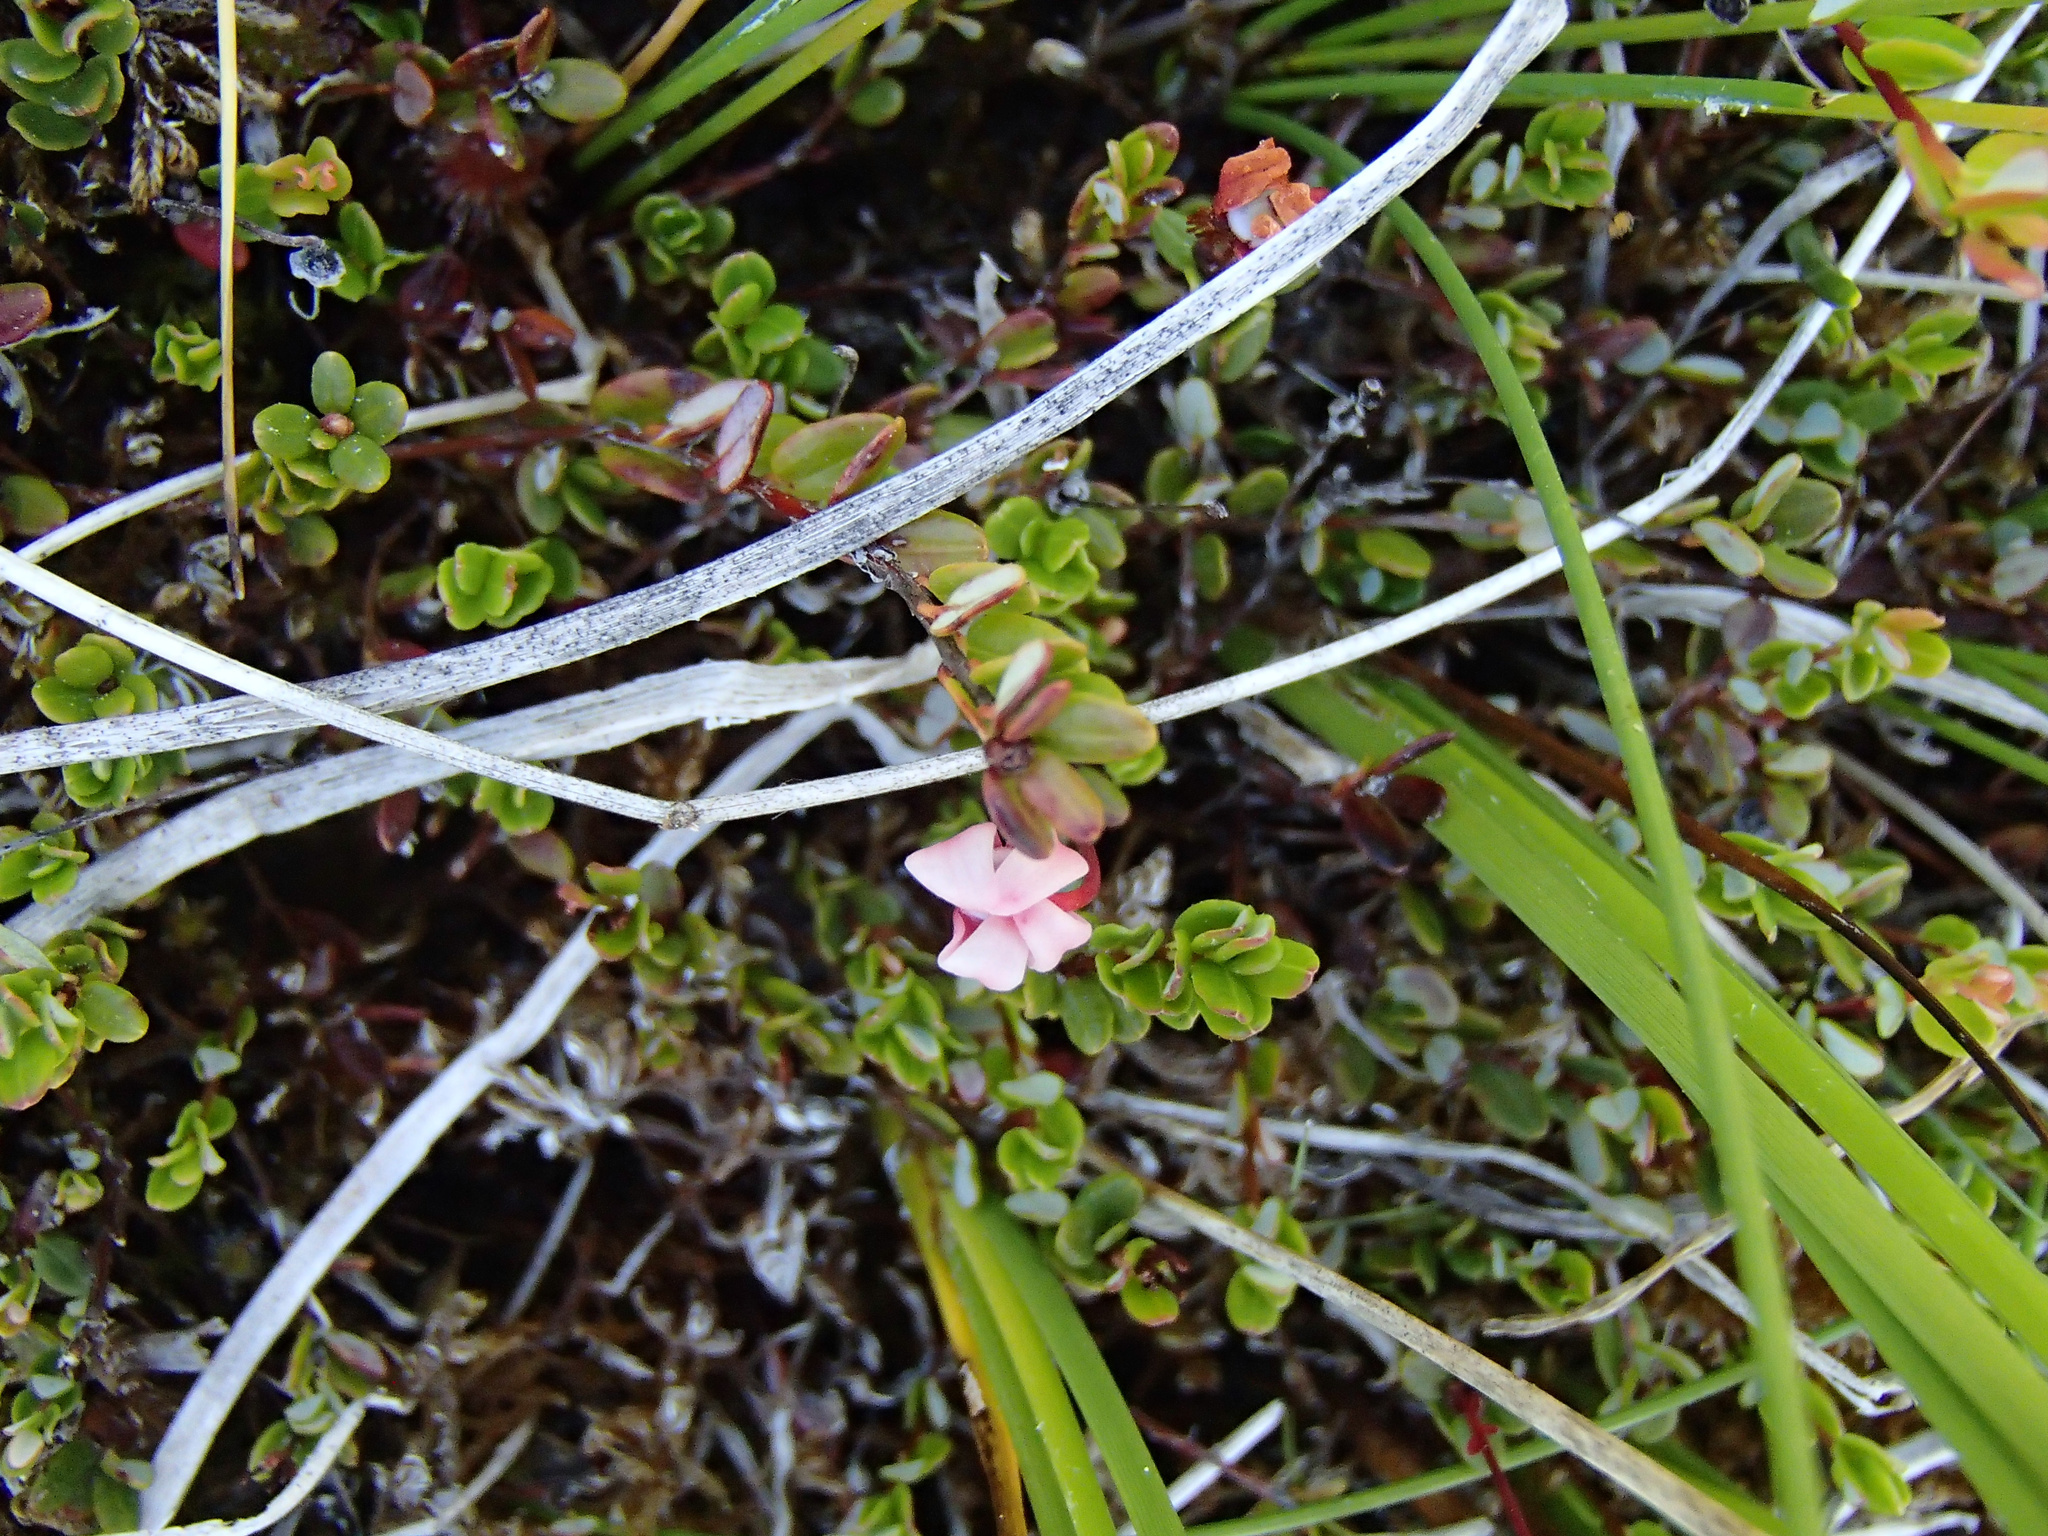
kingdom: Plantae
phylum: Tracheophyta
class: Magnoliopsida
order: Ericales
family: Ericaceae
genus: Vaccinium
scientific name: Vaccinium oxycoccos
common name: Cranberry
